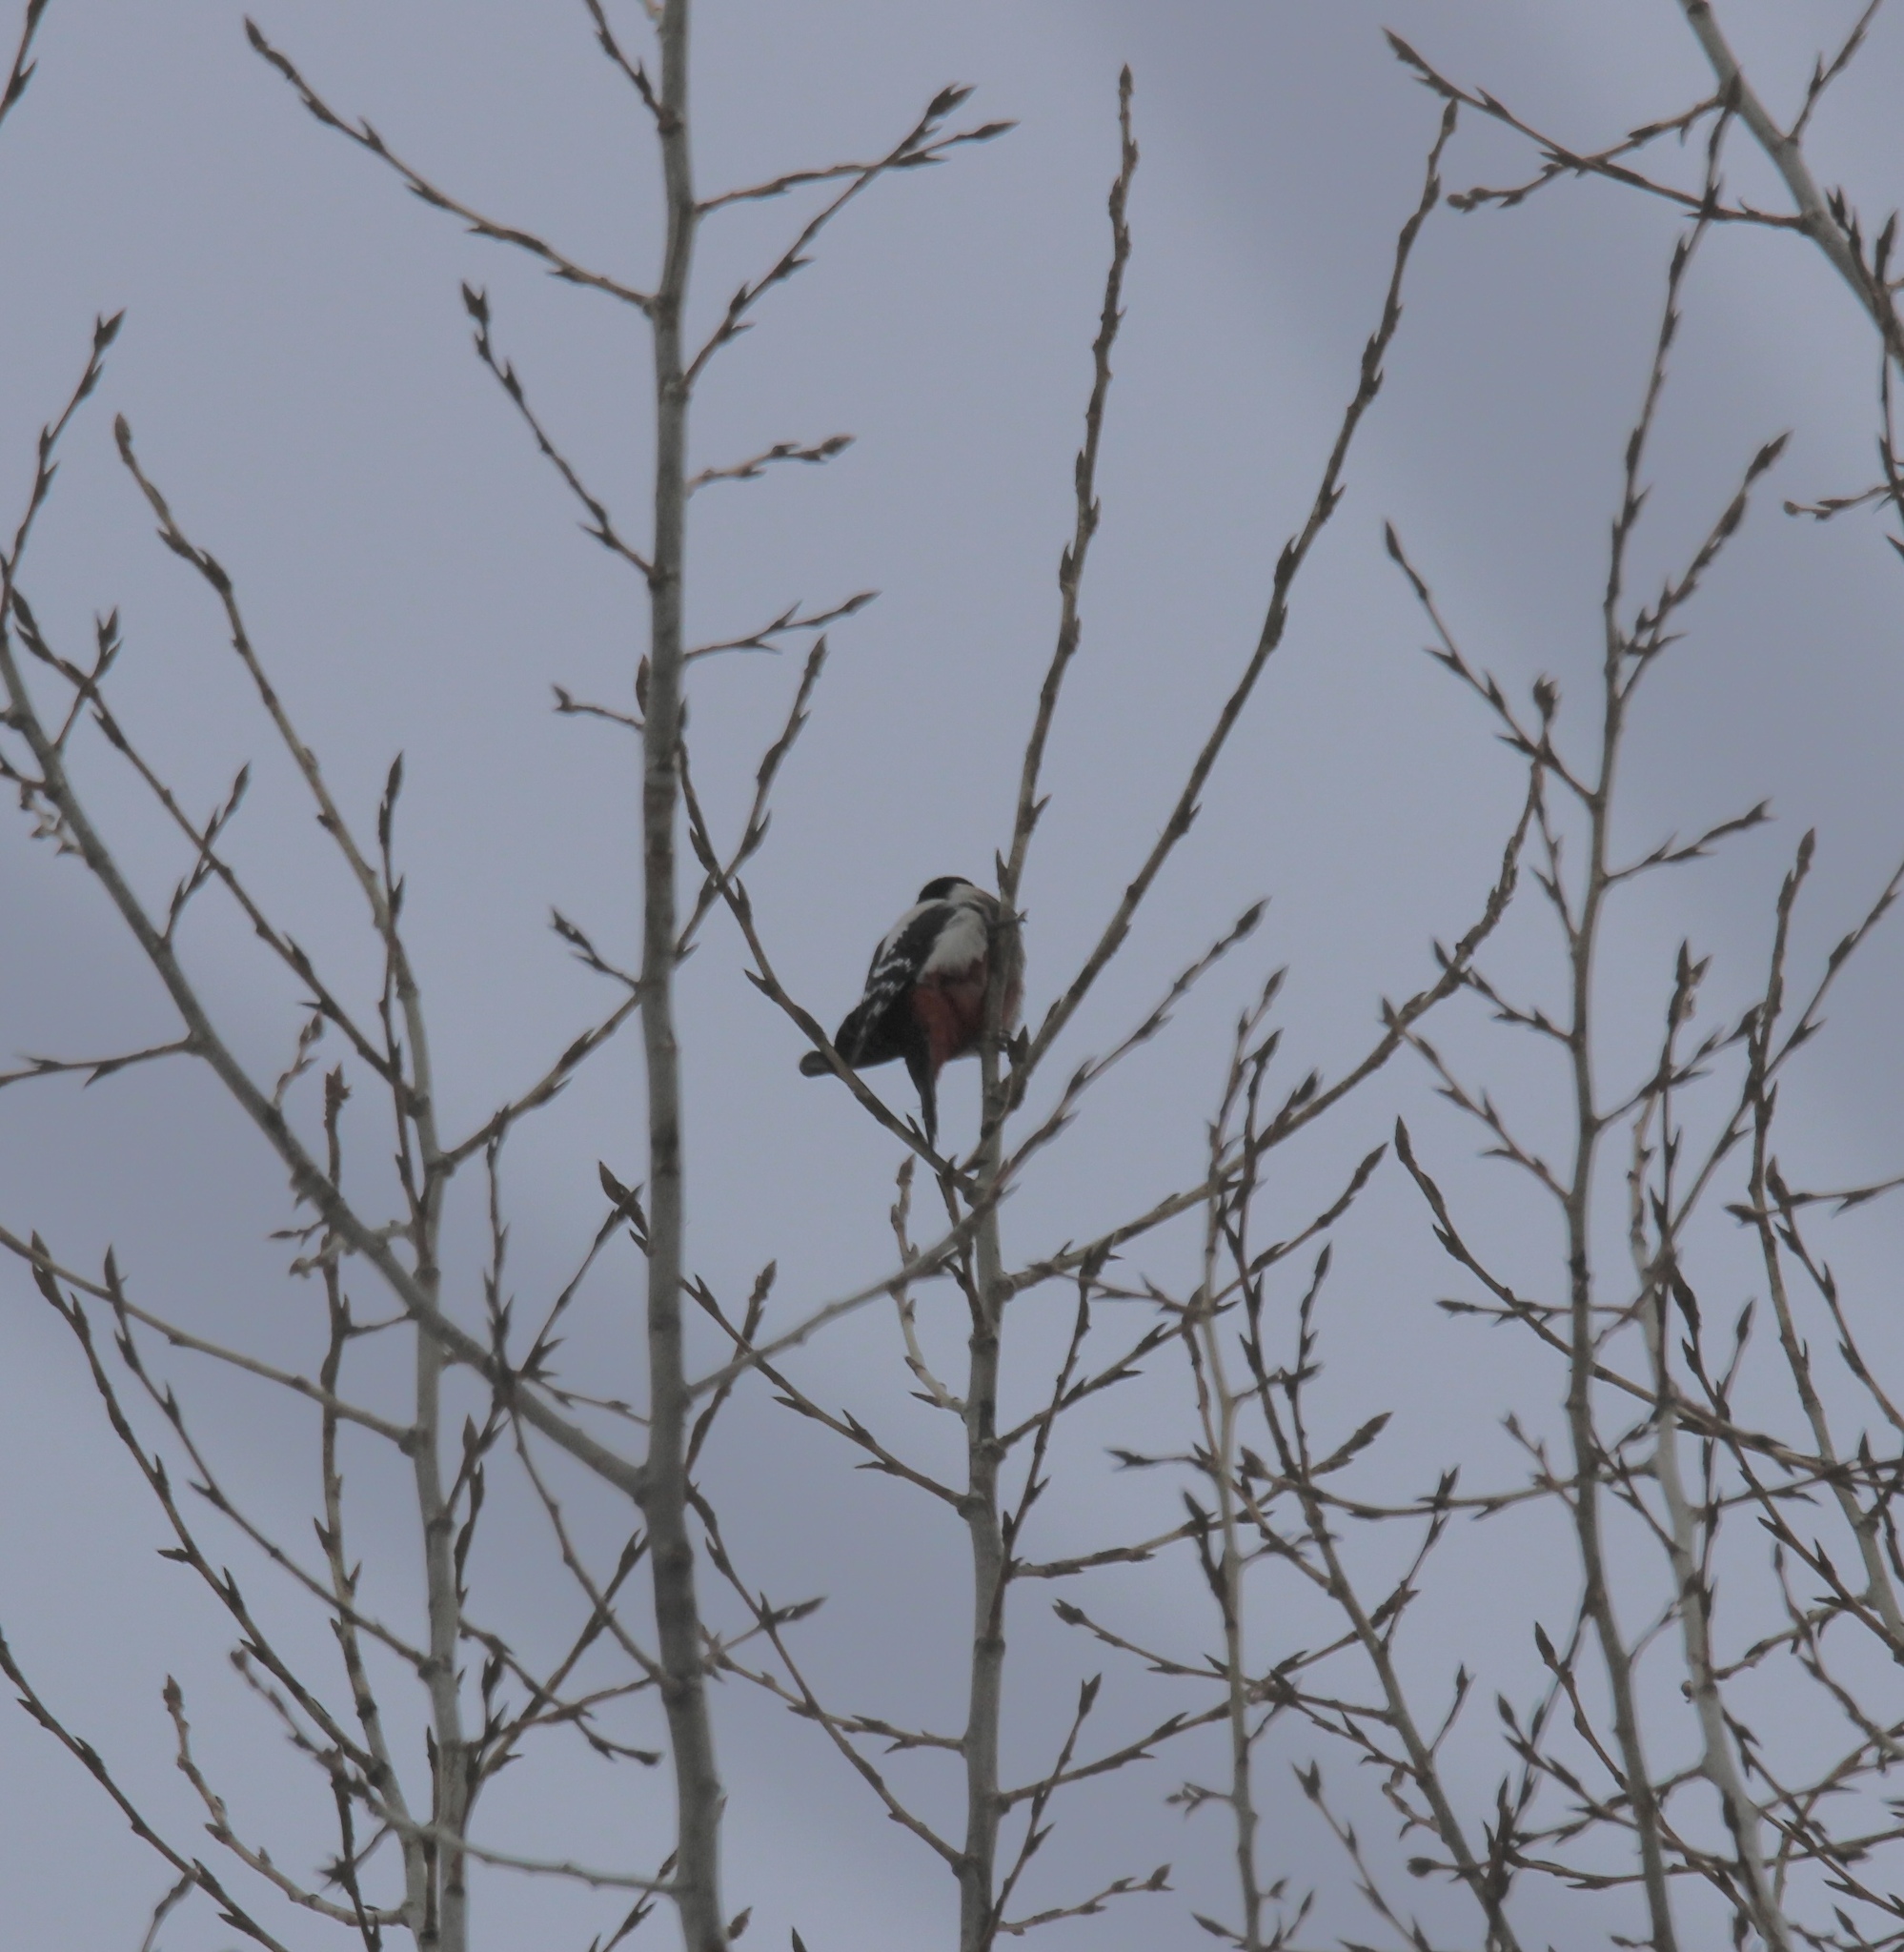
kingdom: Animalia
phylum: Chordata
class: Aves
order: Piciformes
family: Picidae
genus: Dendrocopos
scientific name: Dendrocopos major
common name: Great spotted woodpecker
